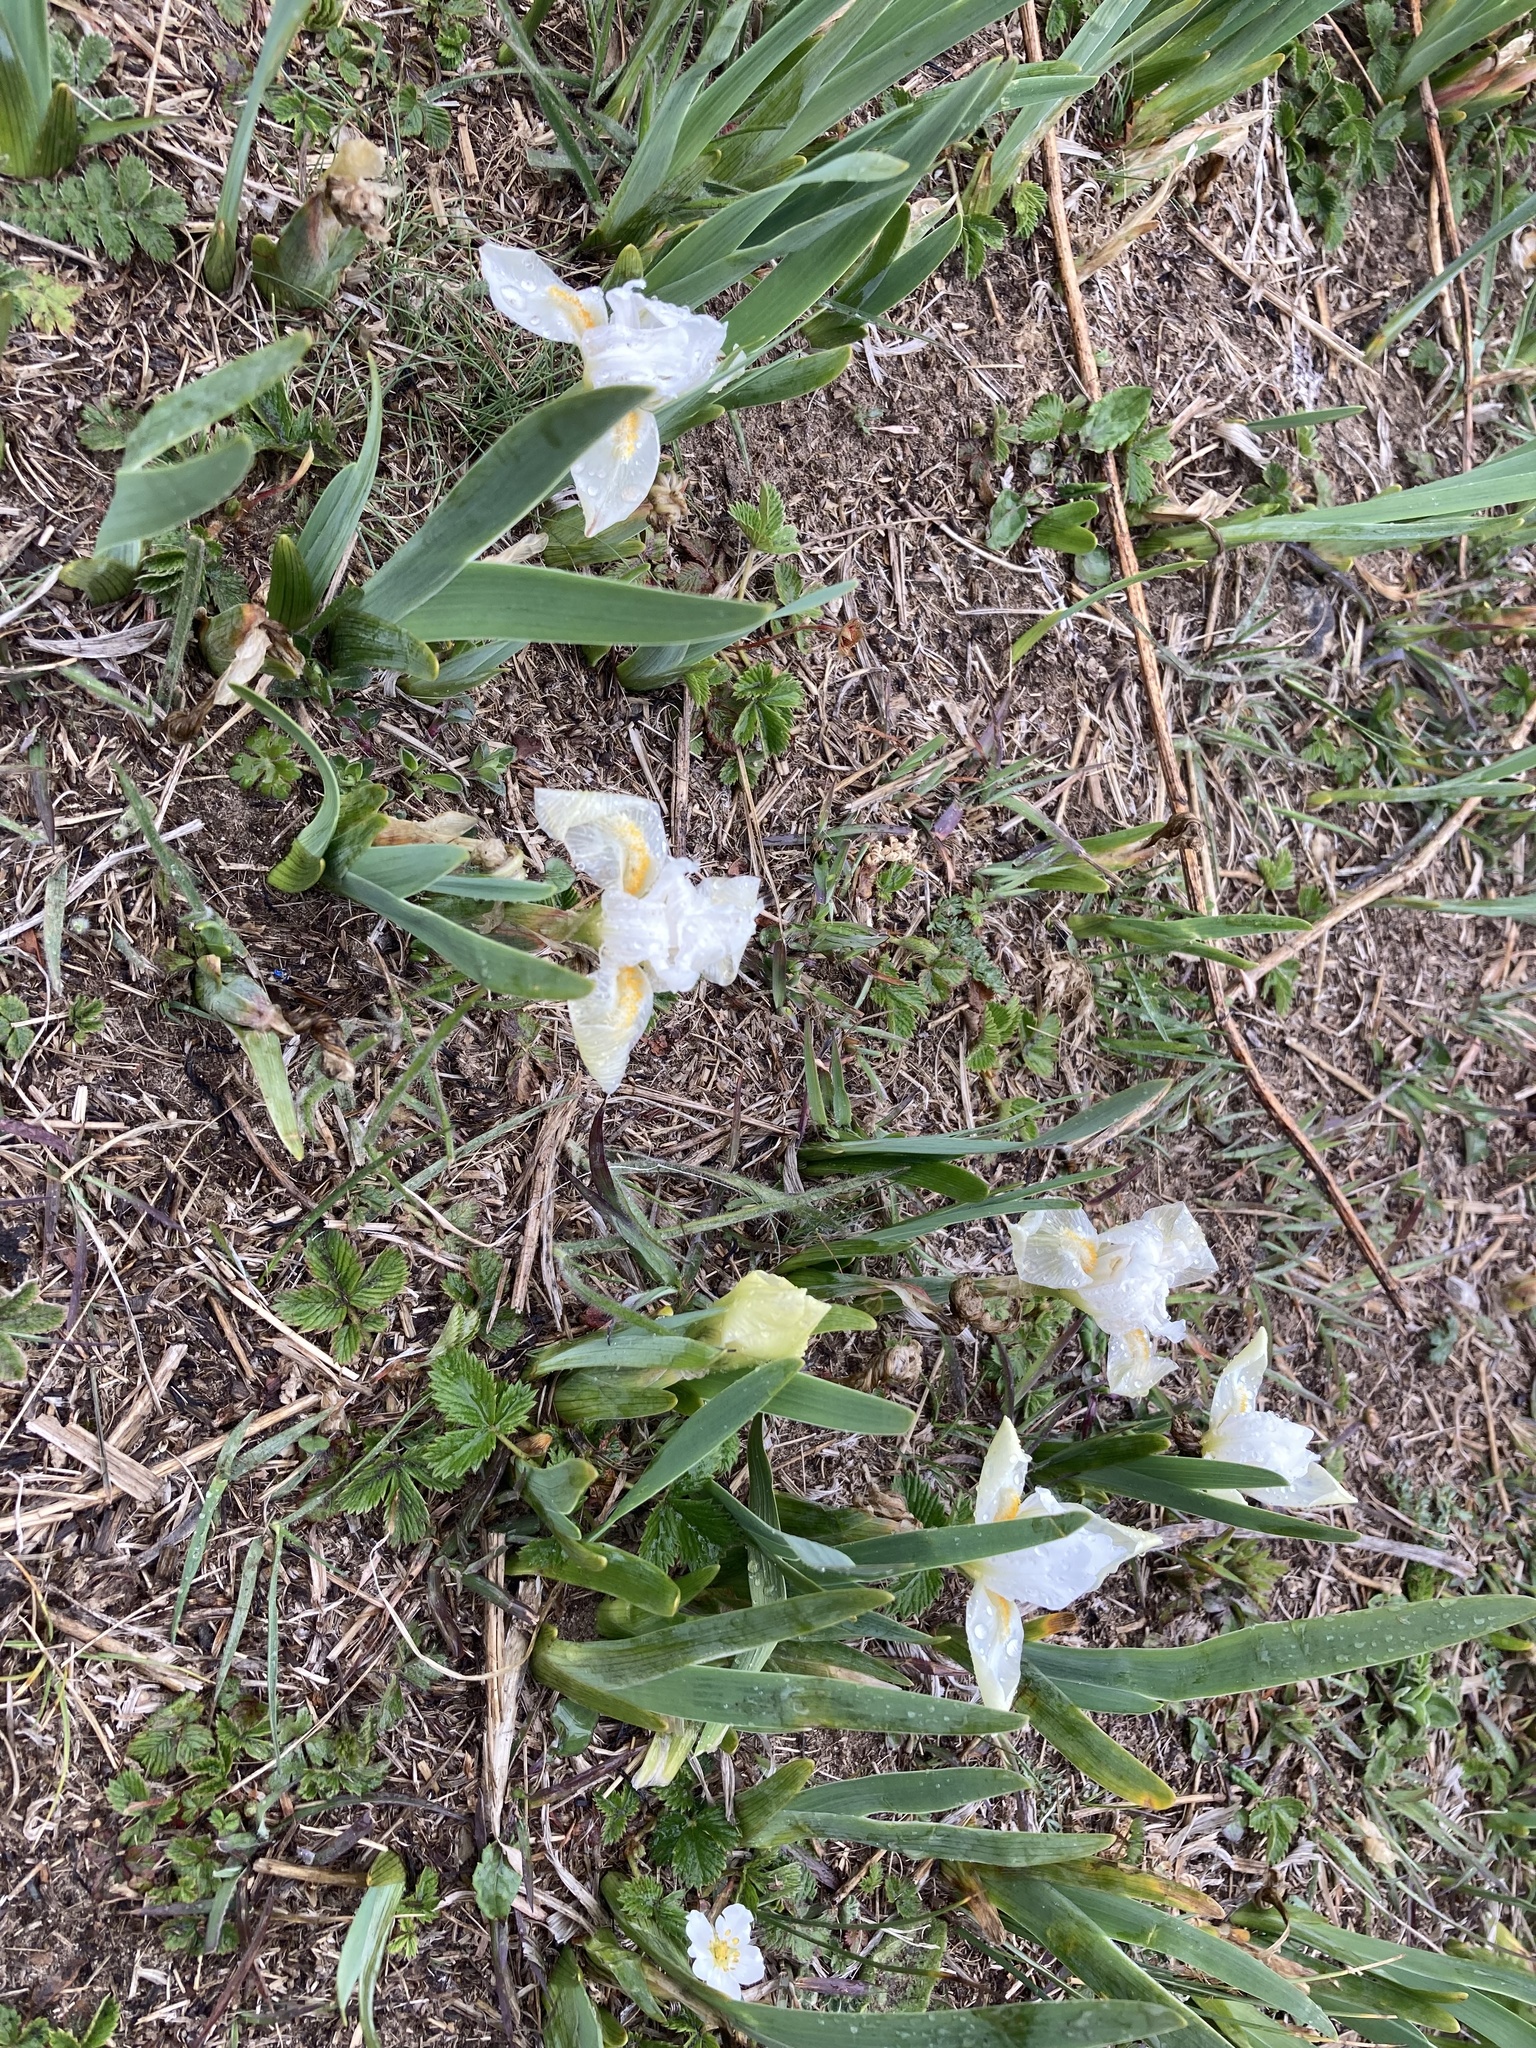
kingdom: Plantae
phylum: Tracheophyta
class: Liliopsida
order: Asparagales
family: Iridaceae
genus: Iris
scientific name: Iris kemaonensis
